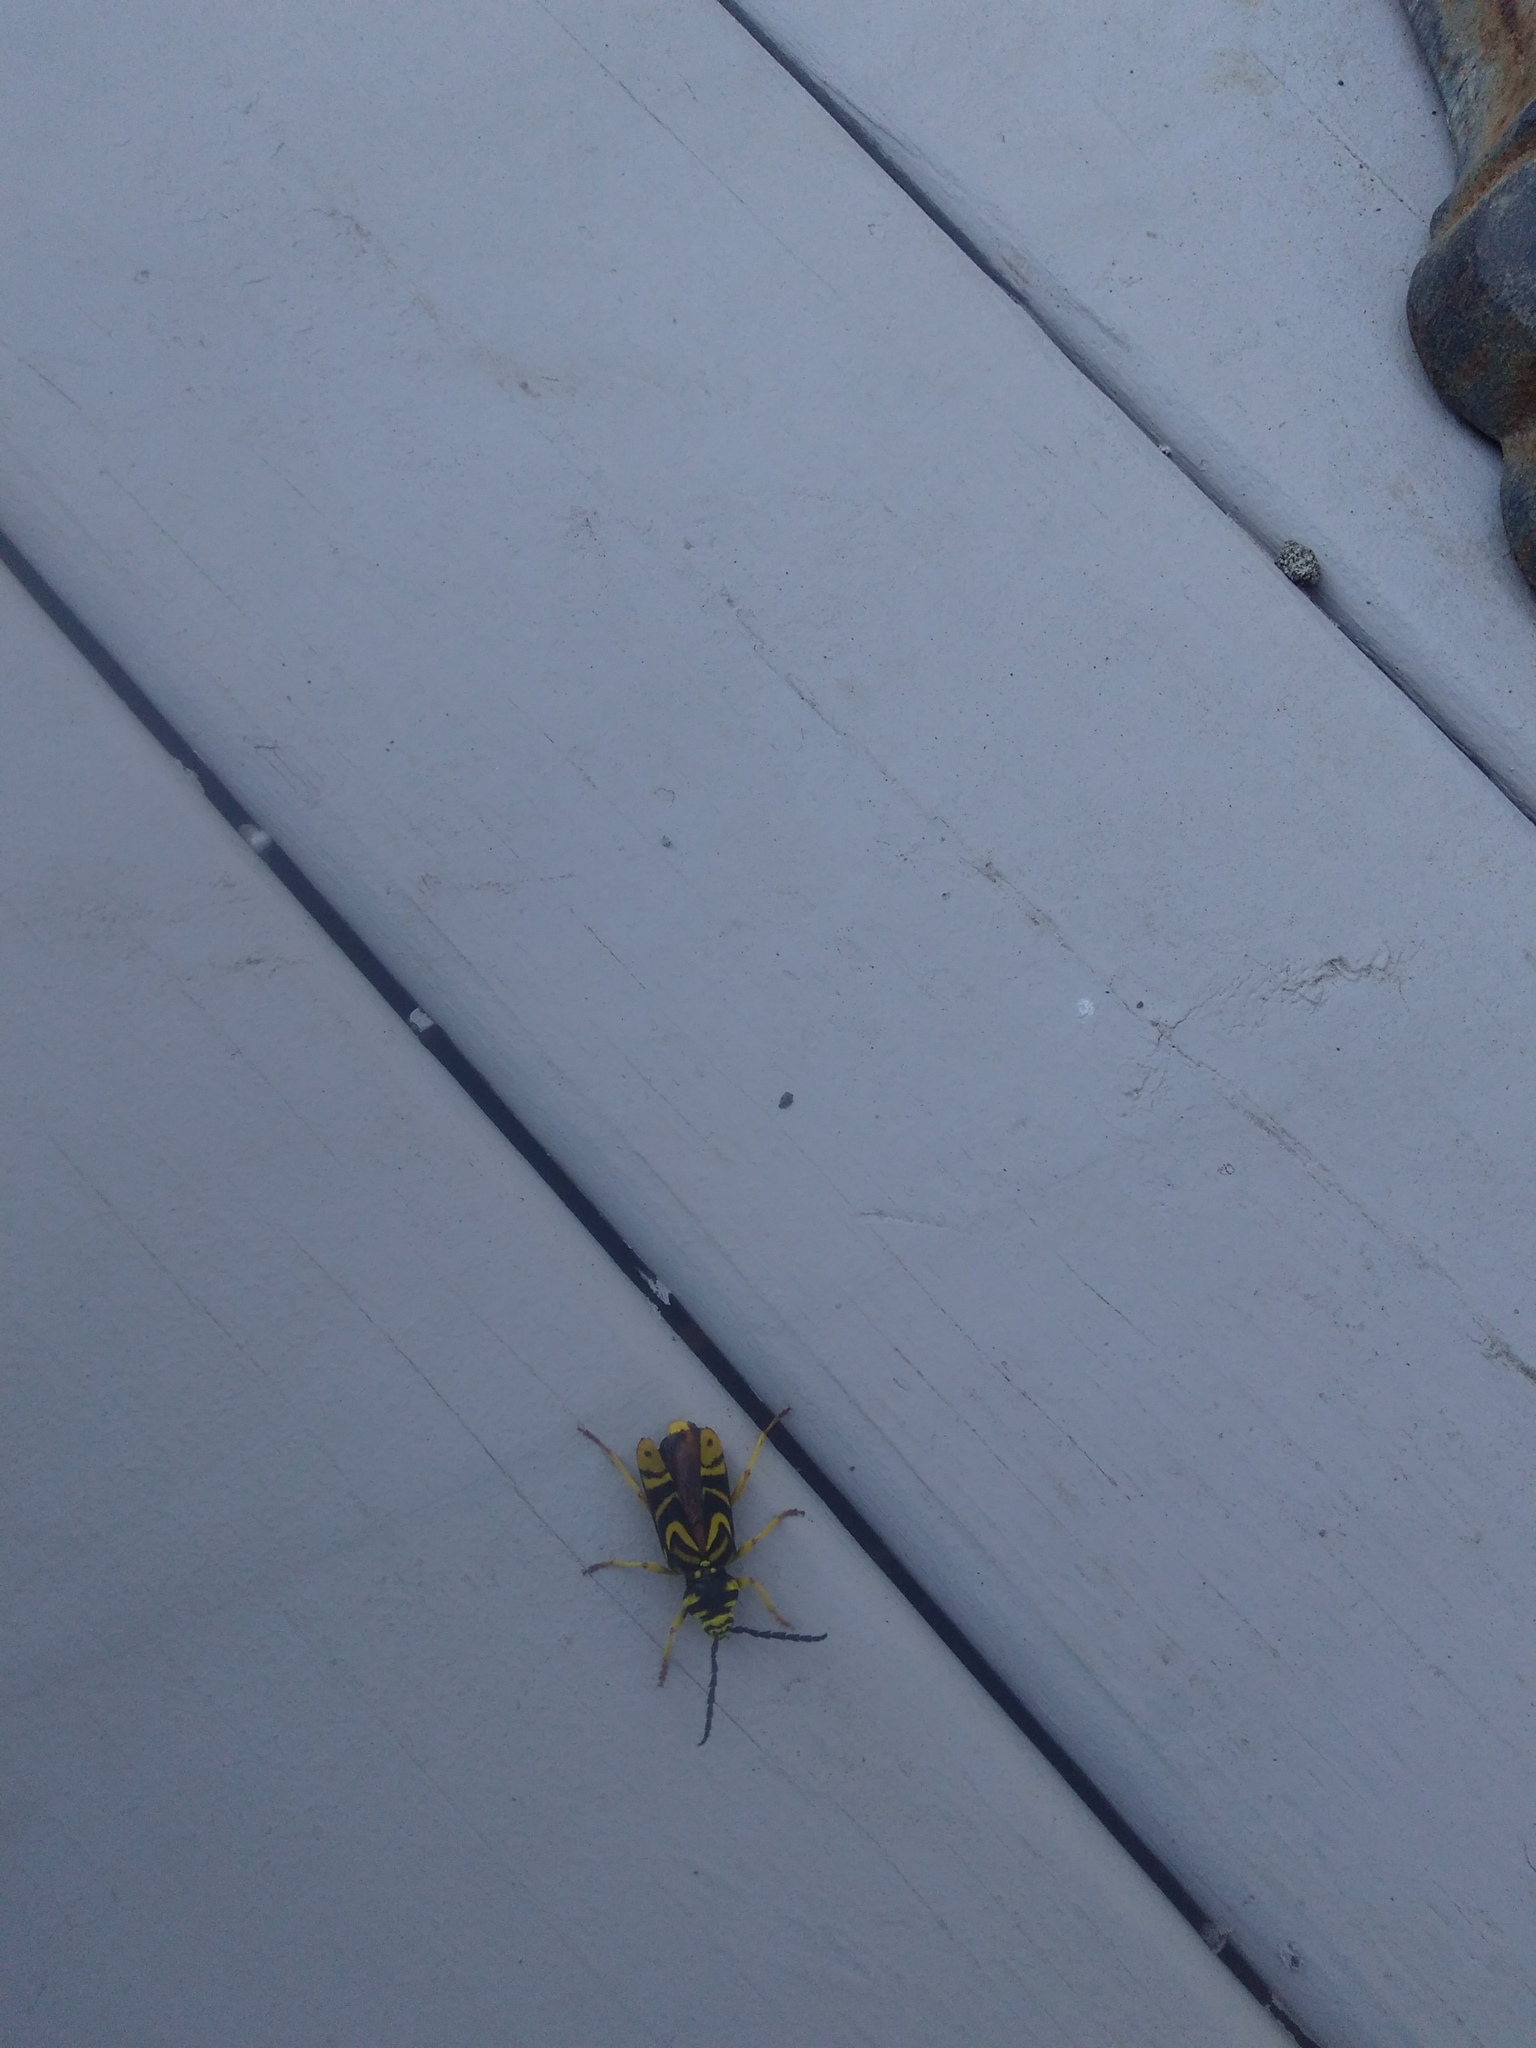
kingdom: Animalia
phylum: Arthropoda
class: Insecta
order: Coleoptera
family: Cerambycidae
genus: Glycobius
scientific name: Glycobius speciosus
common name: Sugar maple borer
